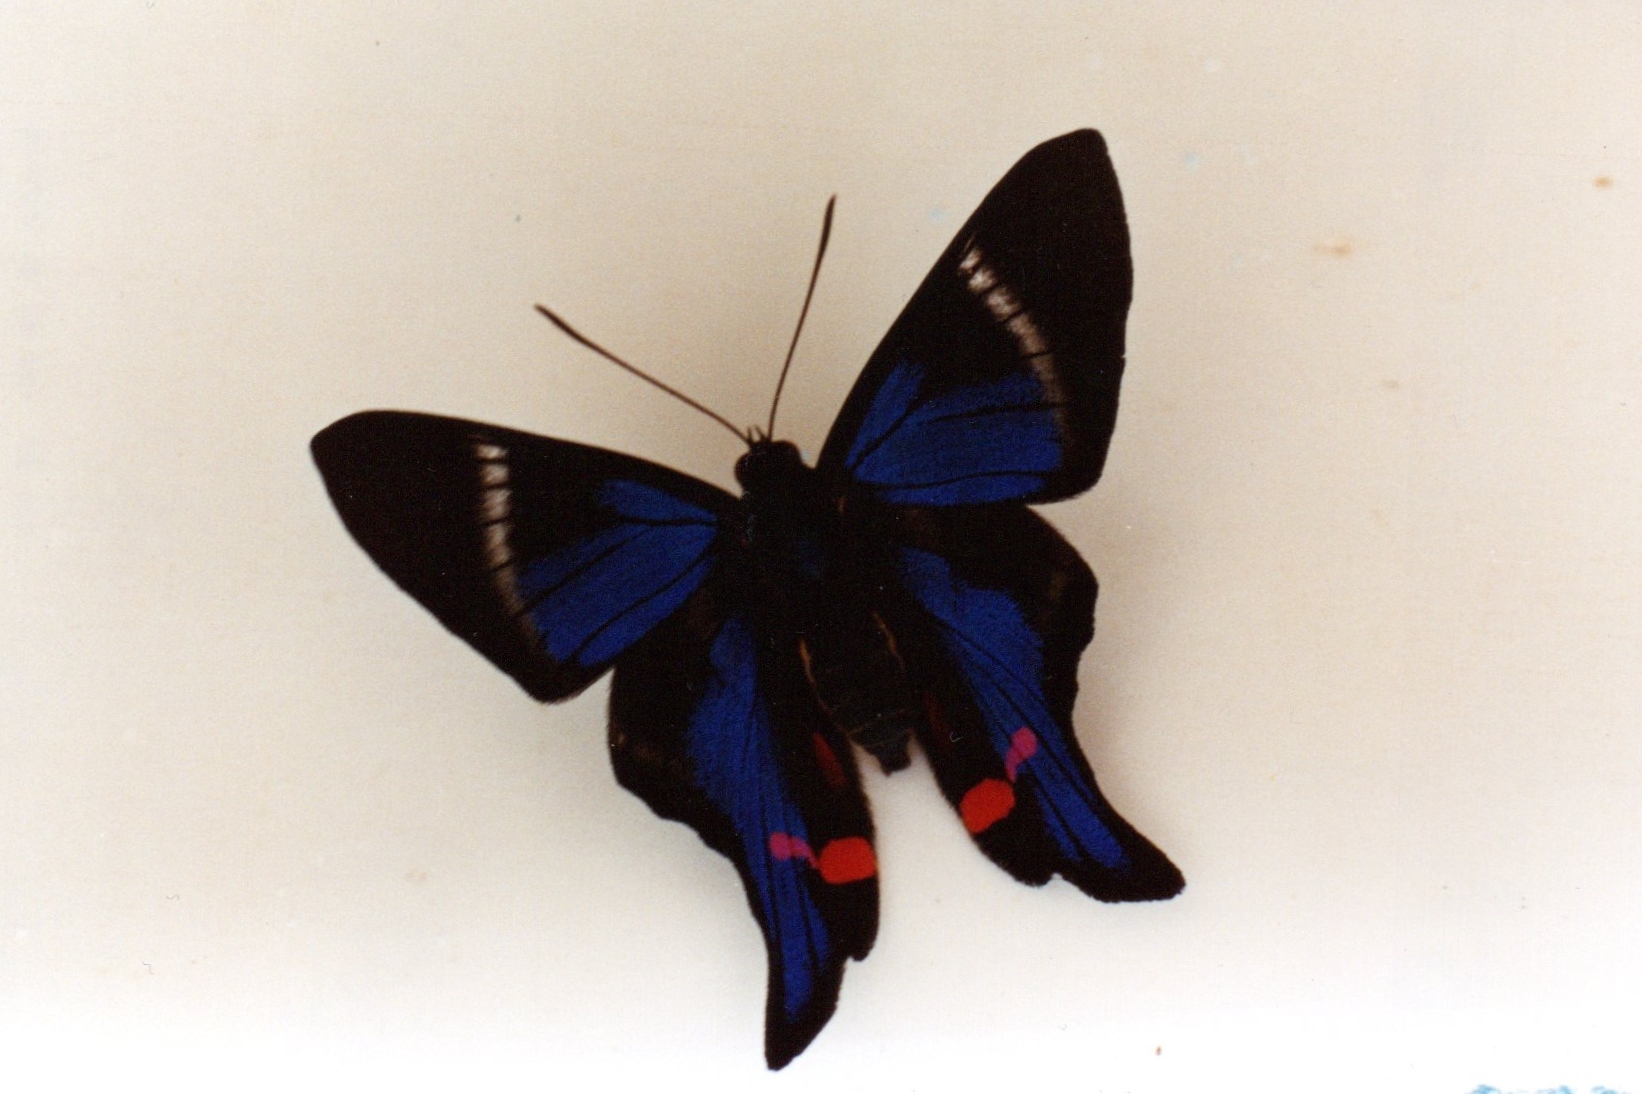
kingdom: Animalia
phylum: Arthropoda
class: Insecta
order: Lepidoptera
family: Riodinidae
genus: Rhetus
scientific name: Rhetus periander
